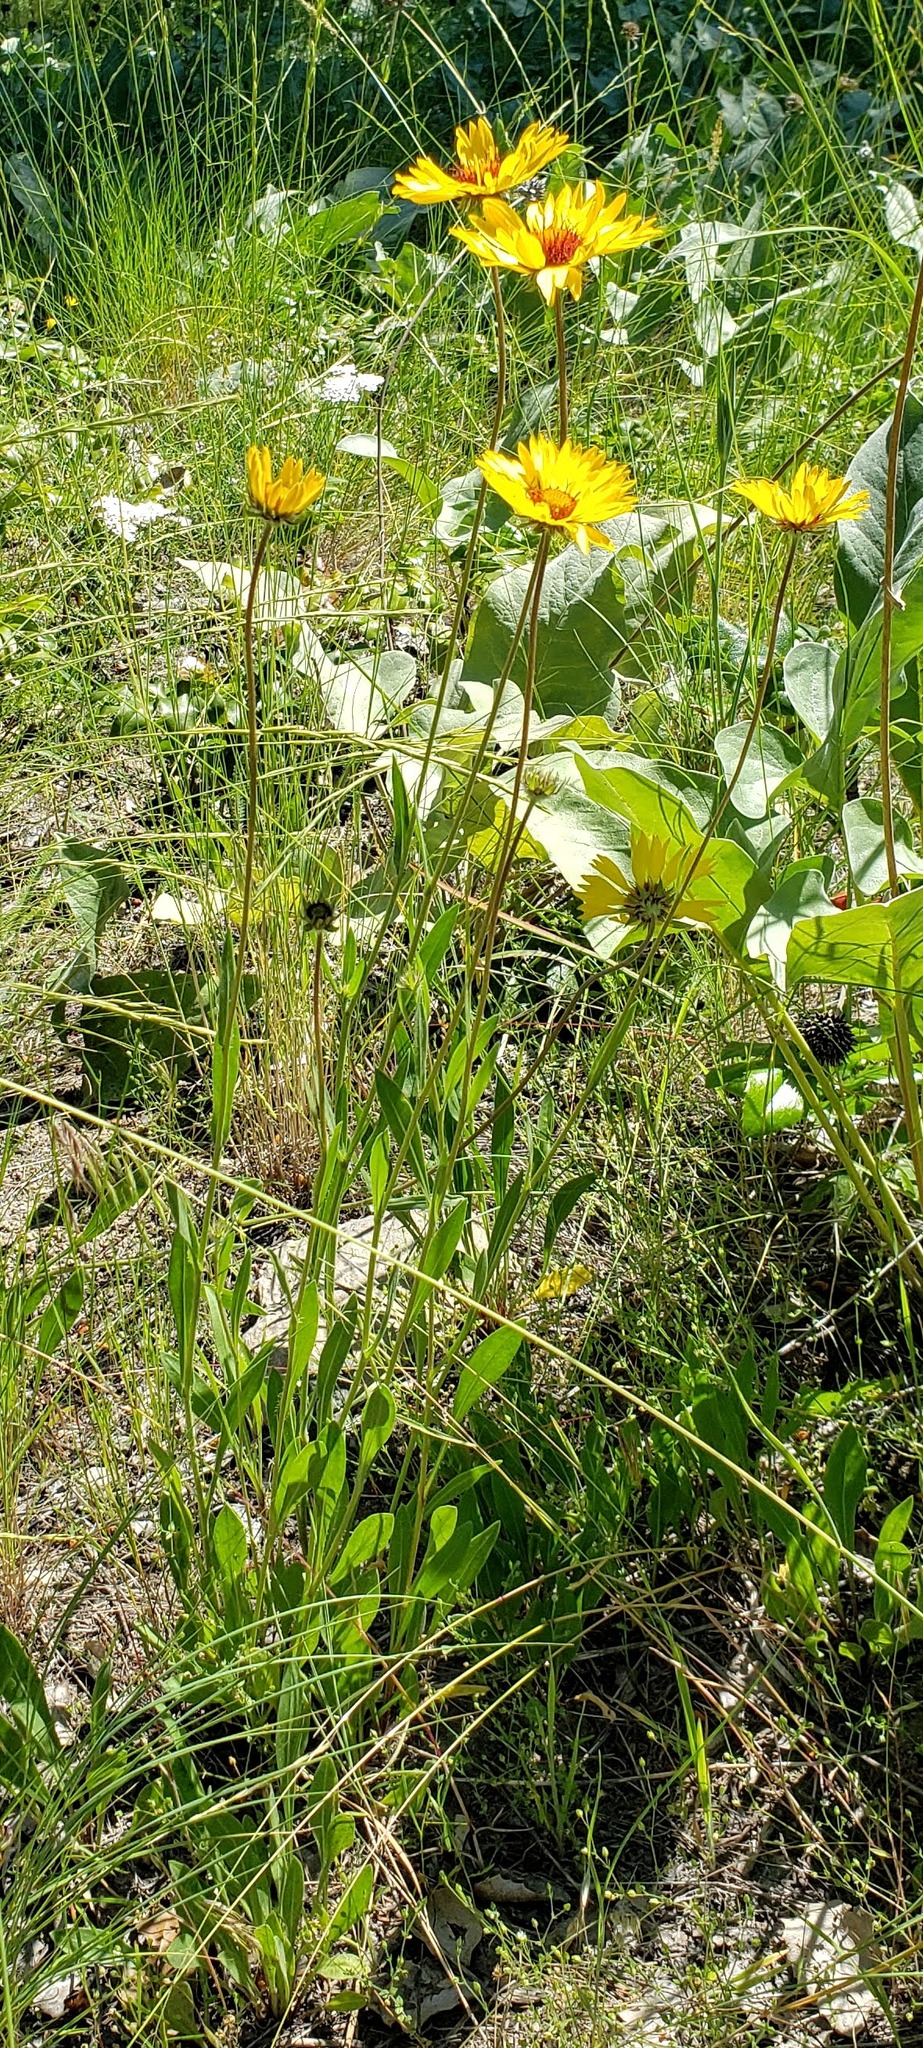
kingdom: Plantae
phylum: Tracheophyta
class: Magnoliopsida
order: Asterales
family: Asteraceae
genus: Gaillardia
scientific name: Gaillardia aristata
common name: Blanket-flower
